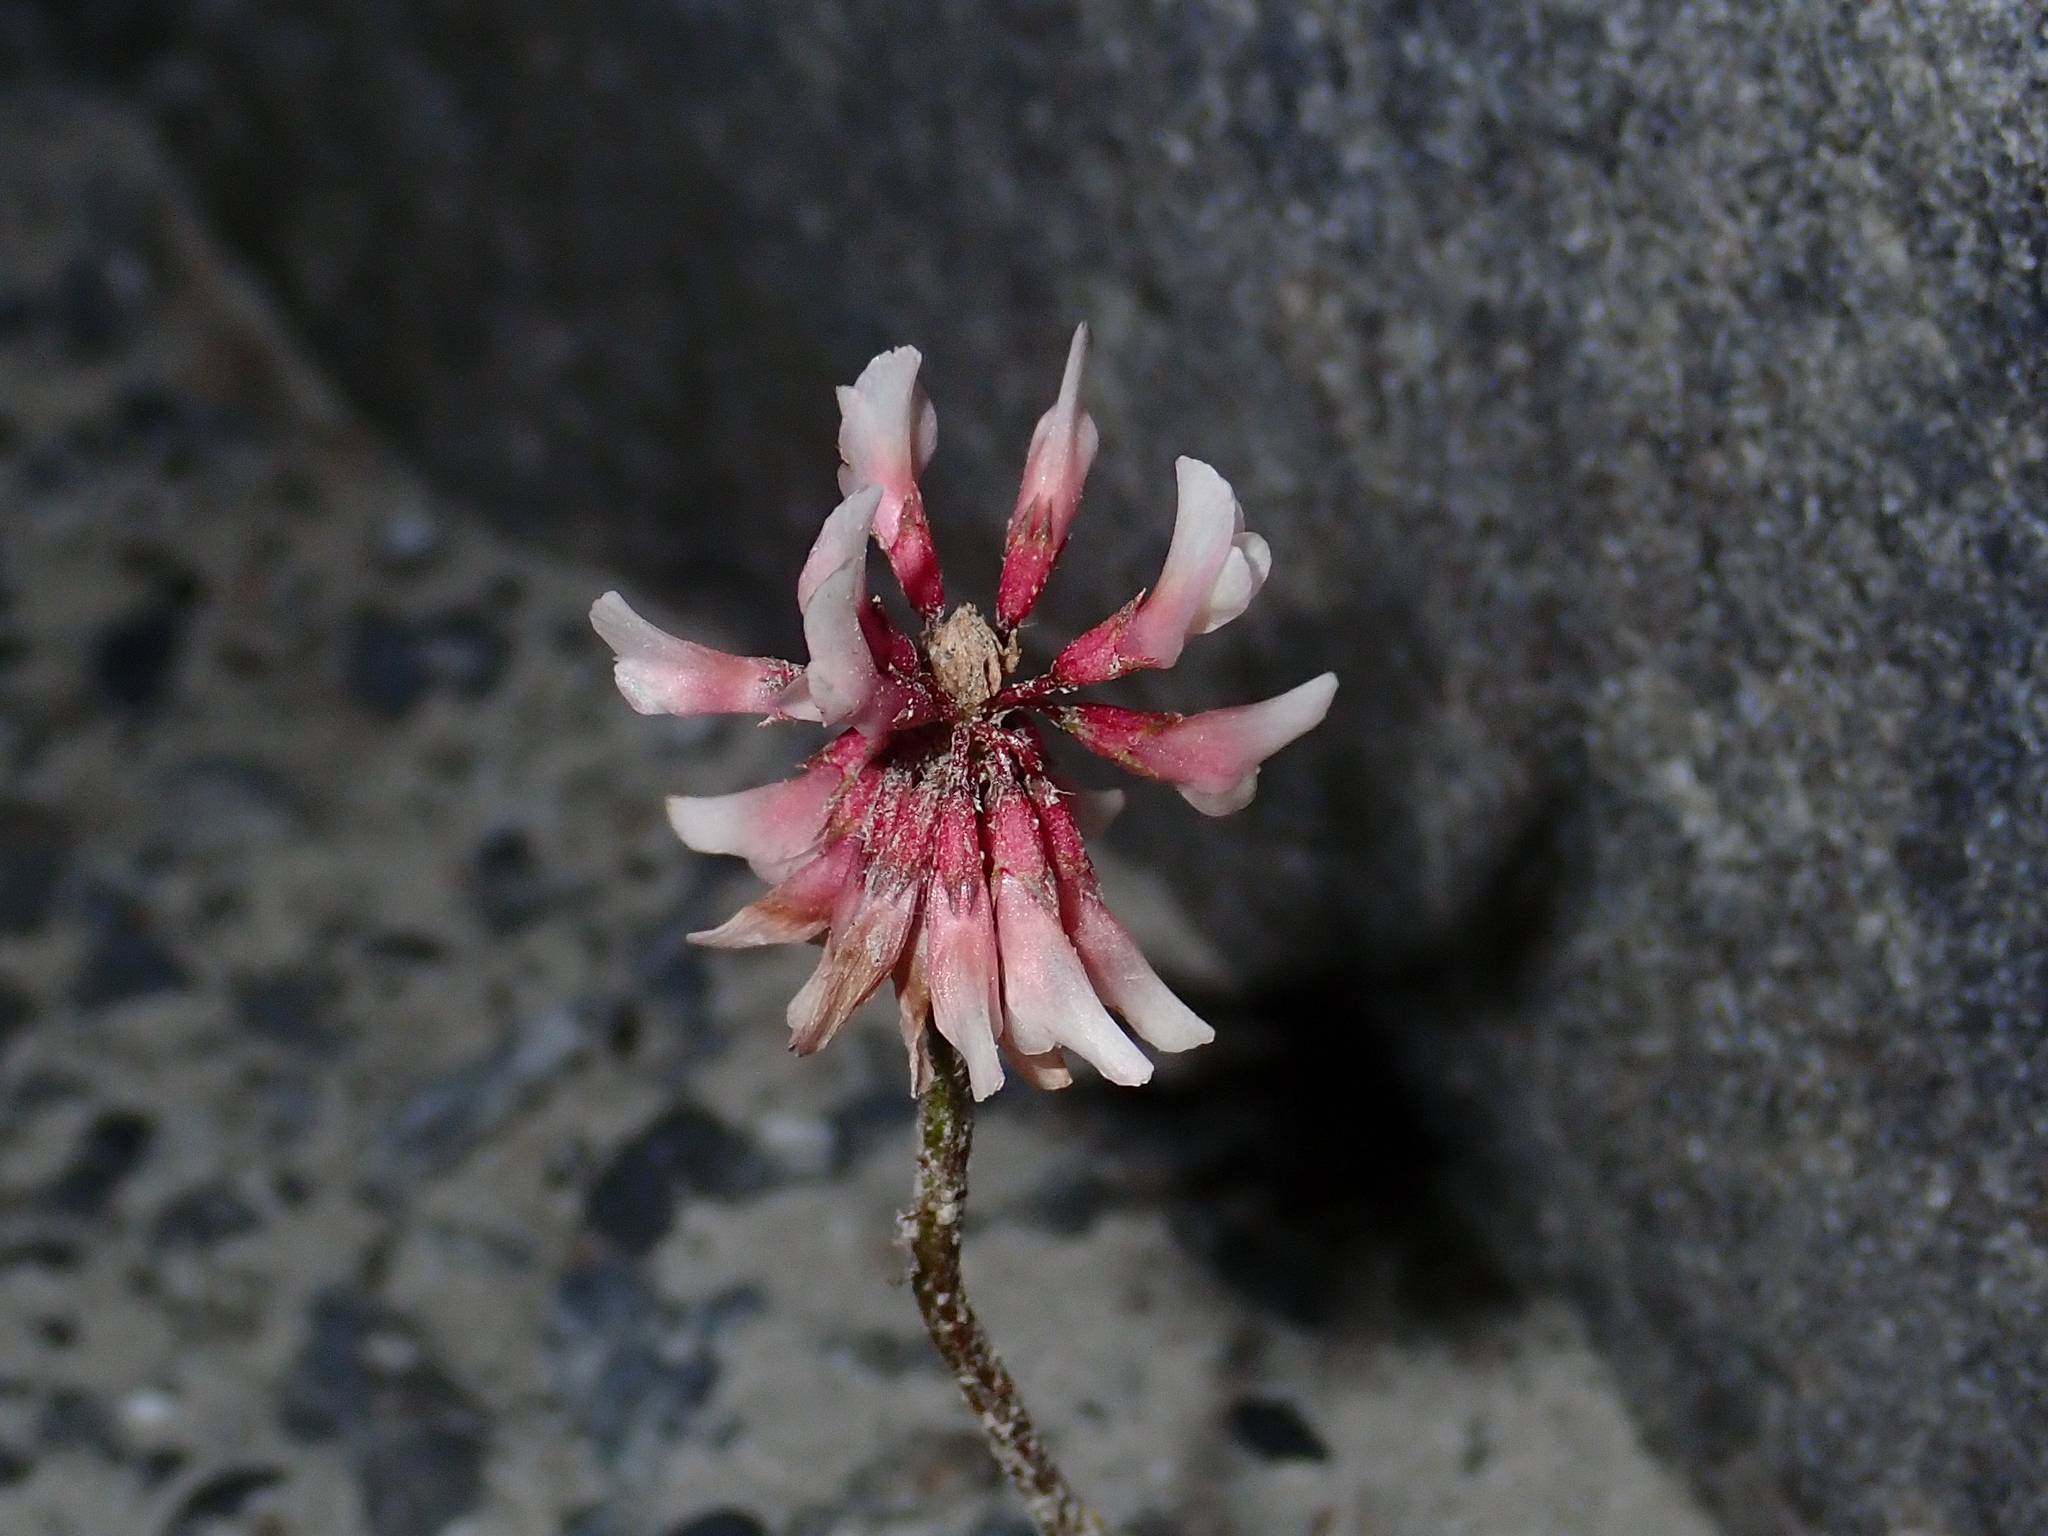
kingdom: Plantae
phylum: Tracheophyta
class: Magnoliopsida
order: Fabales
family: Fabaceae
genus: Trifolium
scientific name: Trifolium repens
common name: White clover
